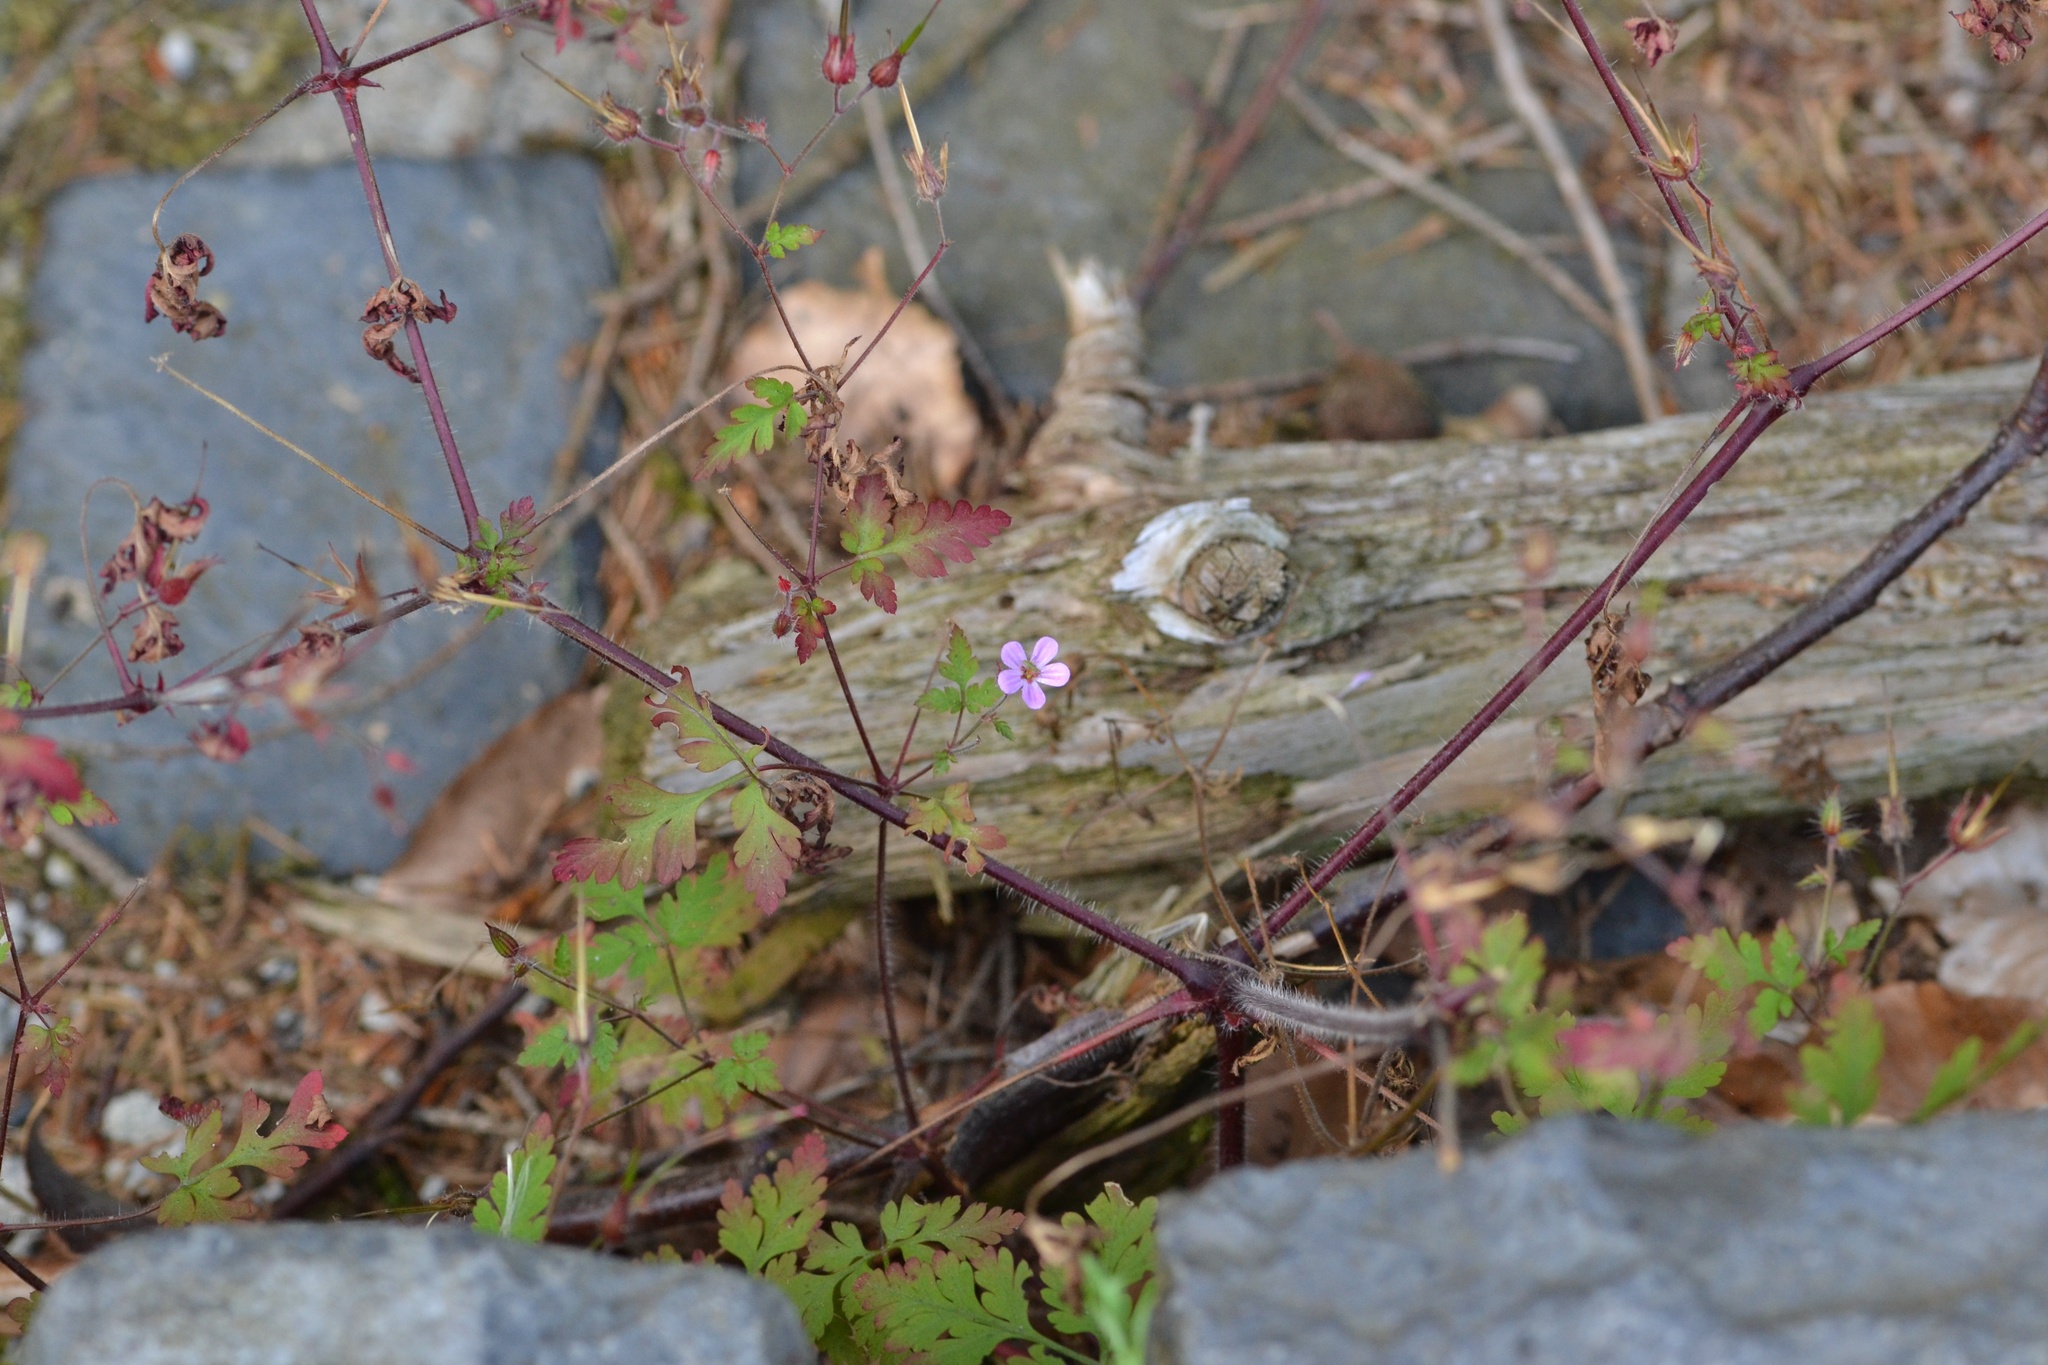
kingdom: Plantae
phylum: Tracheophyta
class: Magnoliopsida
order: Geraniales
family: Geraniaceae
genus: Geranium
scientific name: Geranium robertianum
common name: Herb-robert
